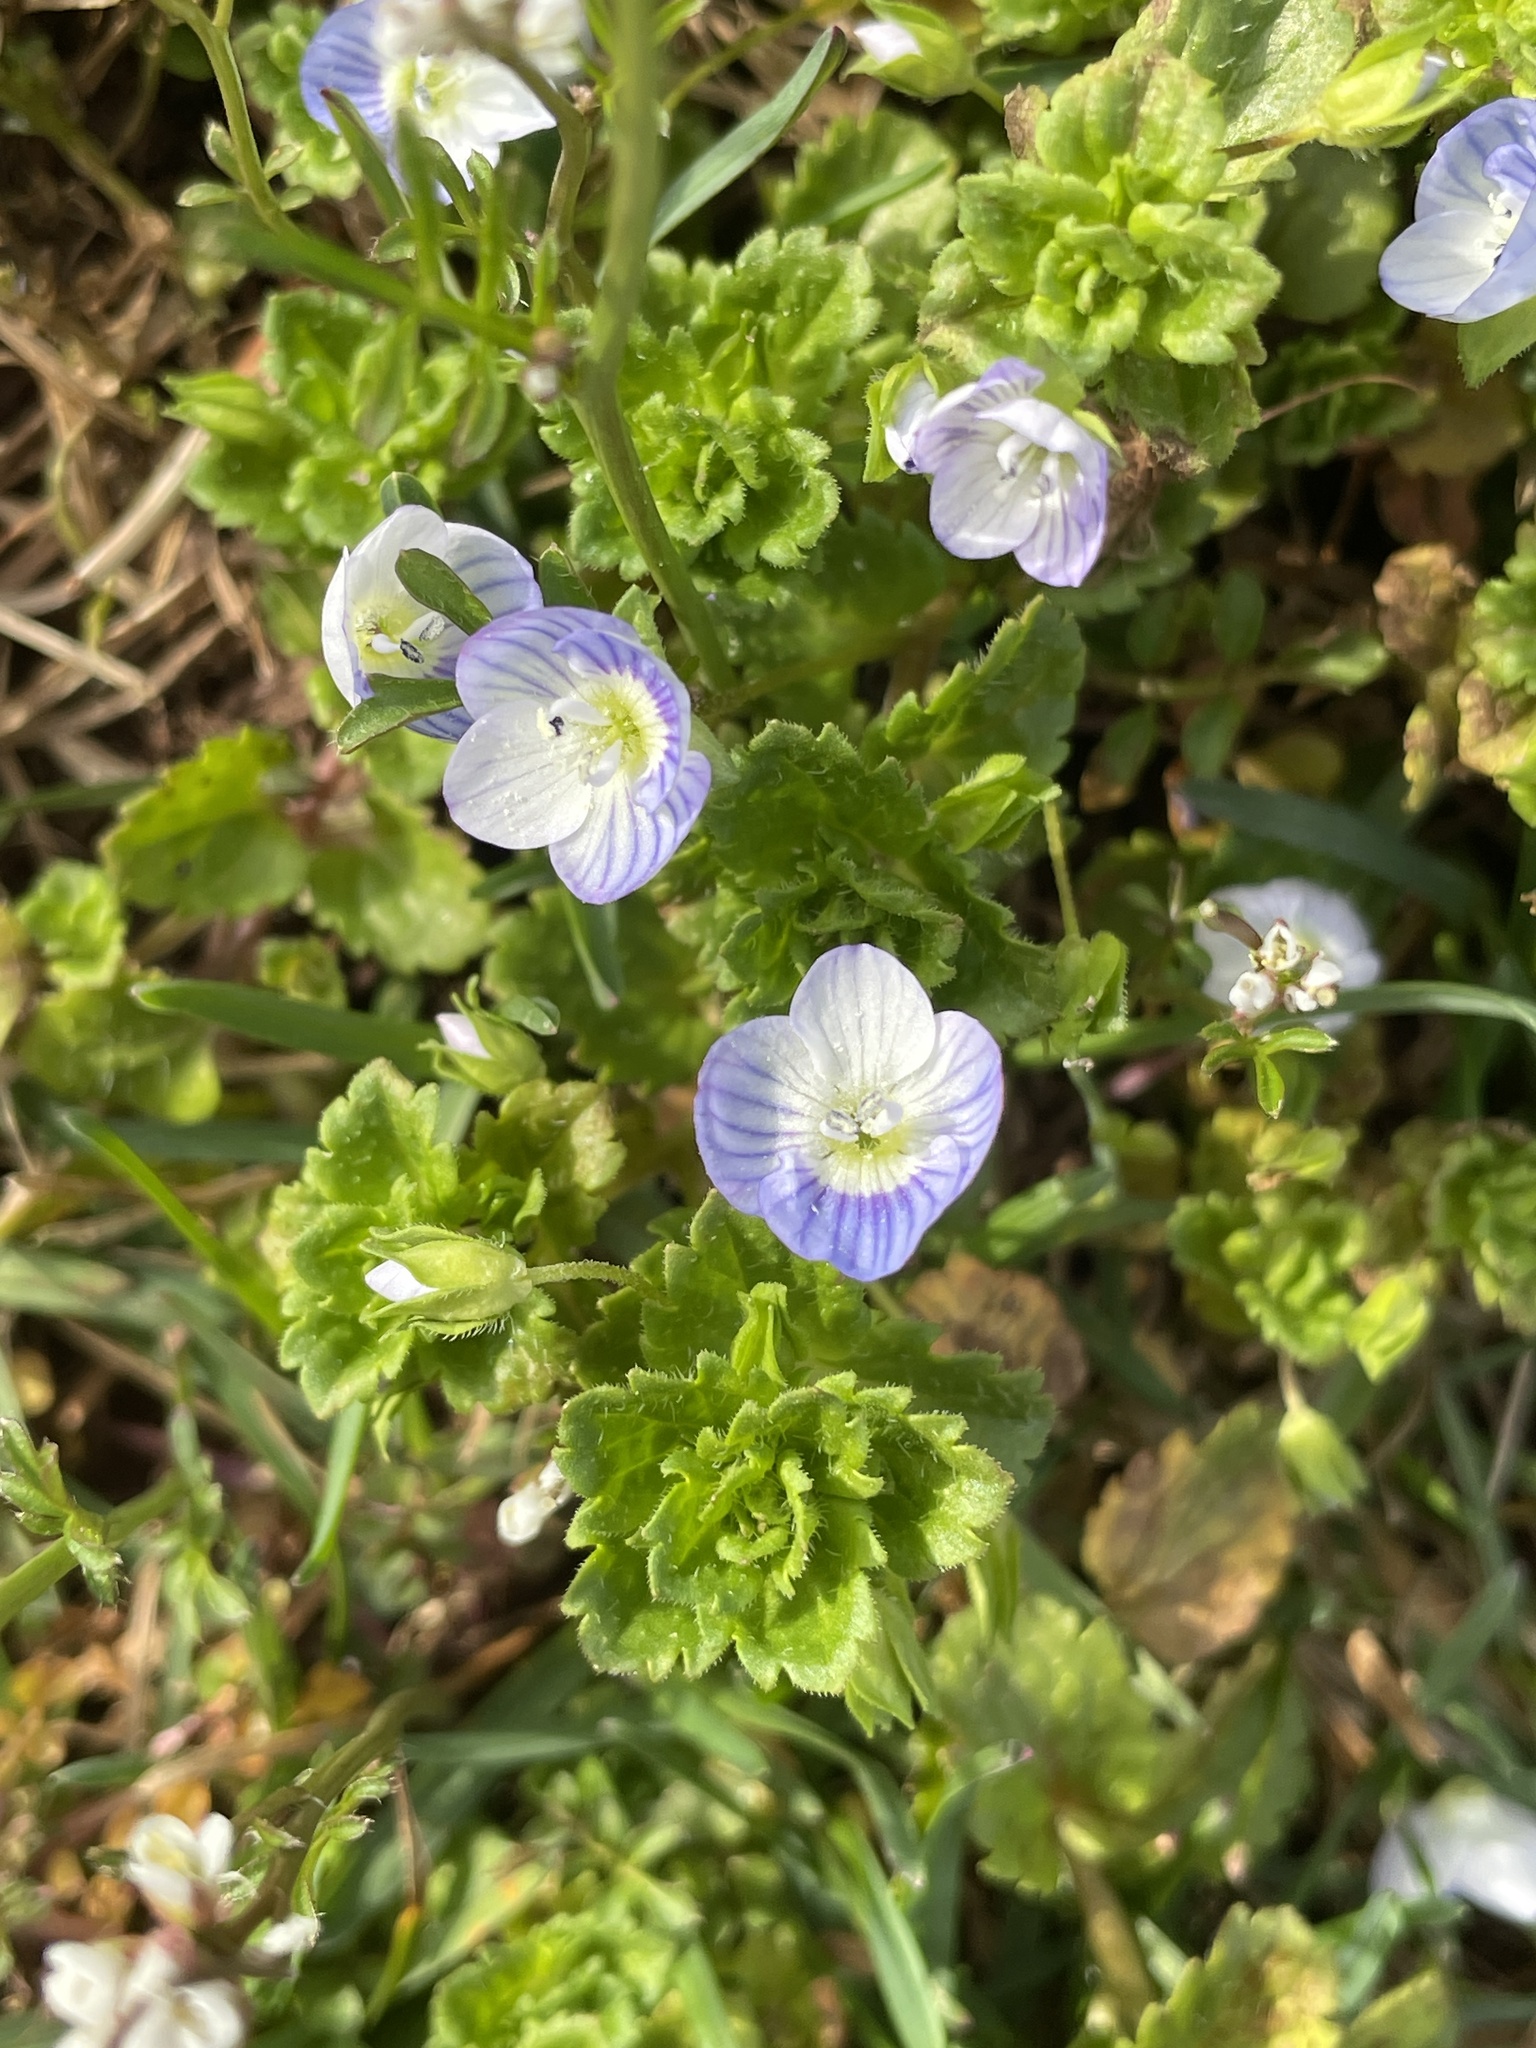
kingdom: Plantae
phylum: Tracheophyta
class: Magnoliopsida
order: Lamiales
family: Plantaginaceae
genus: Veronica
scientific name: Veronica persica
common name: Common field-speedwell
